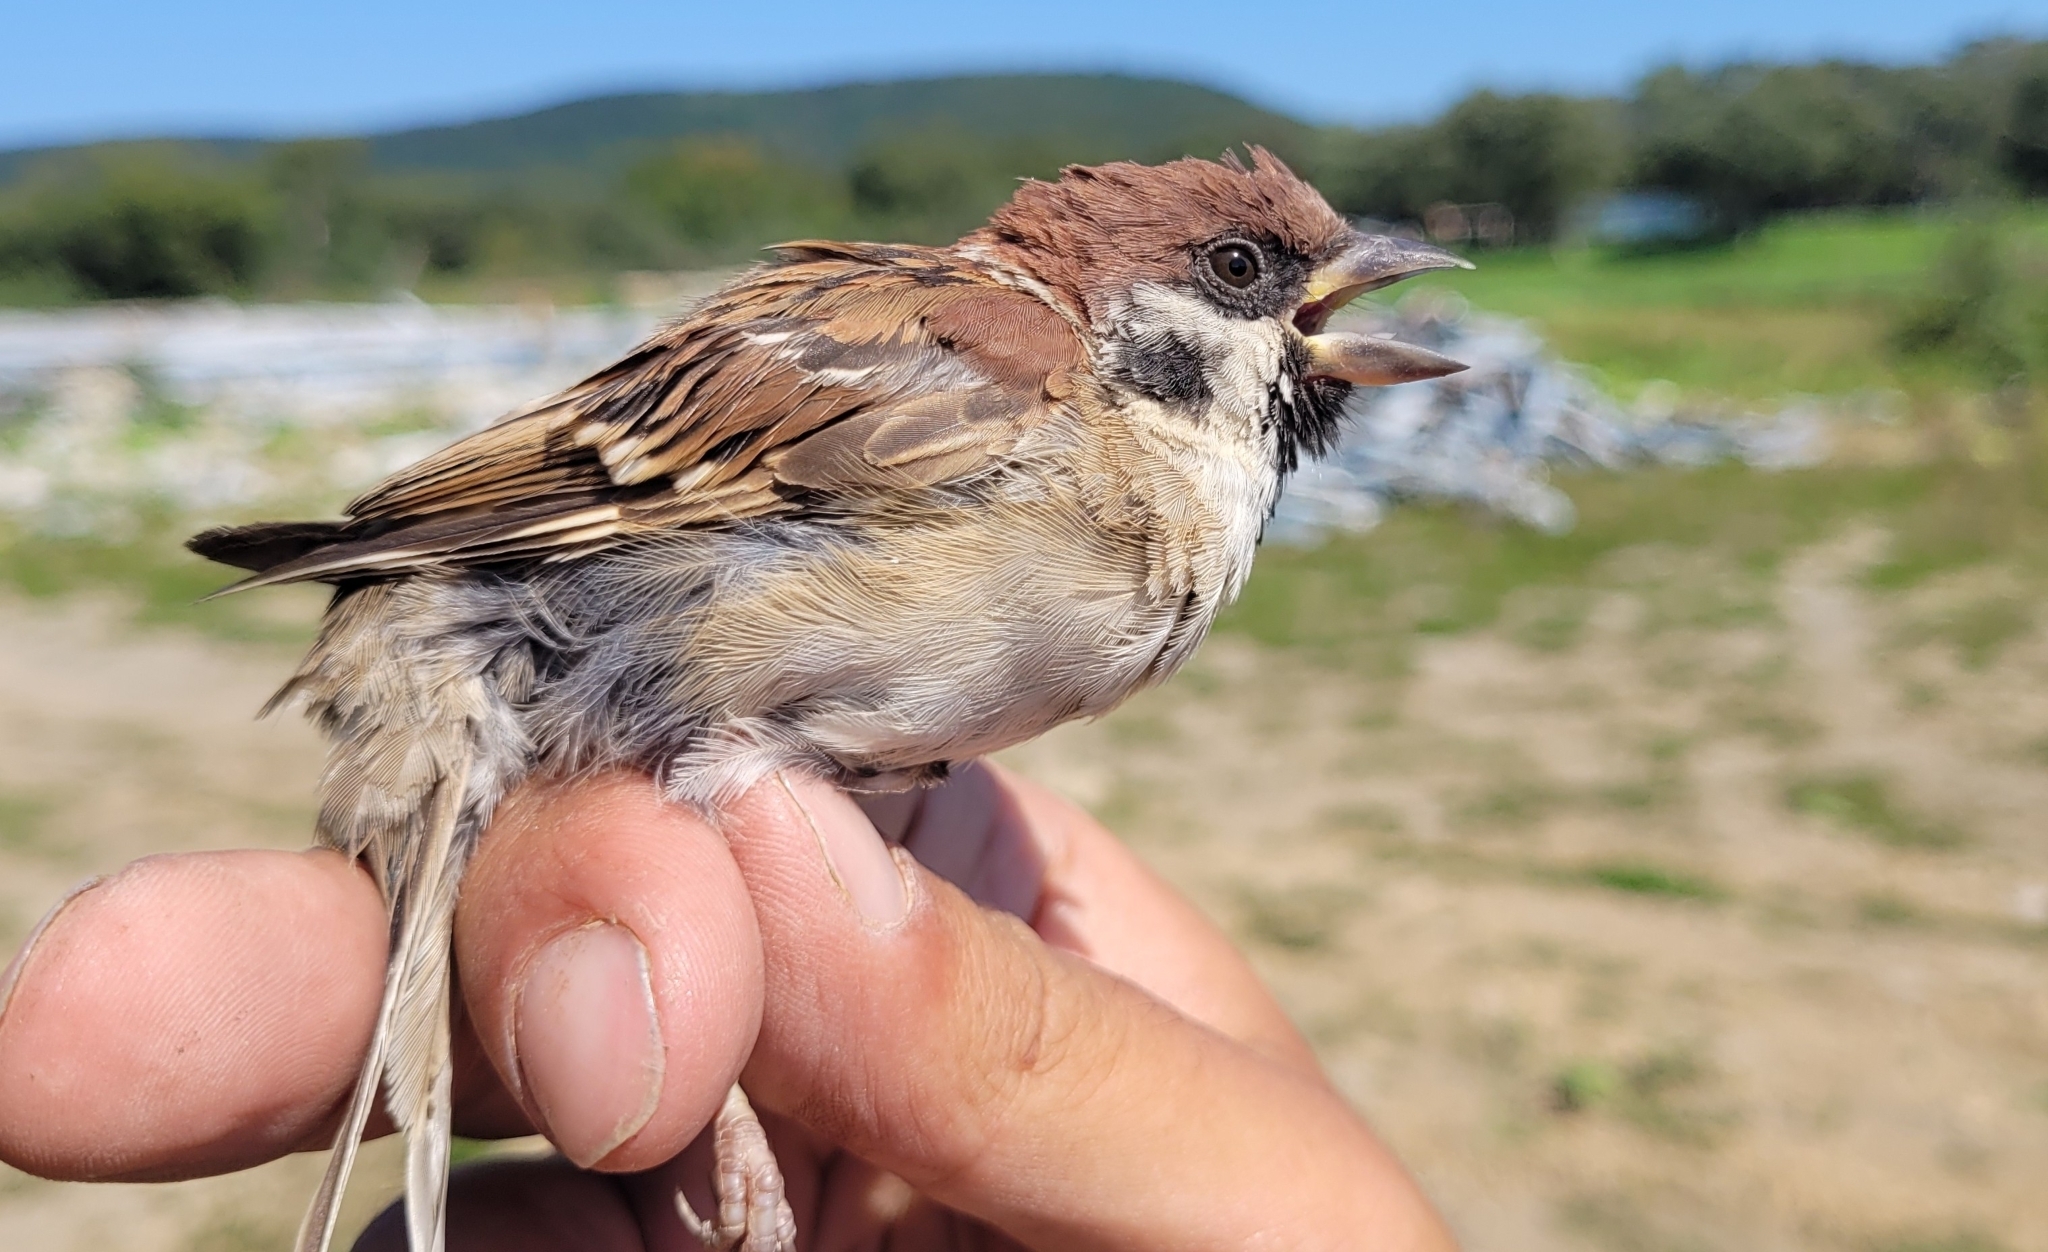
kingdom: Animalia
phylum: Chordata
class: Aves
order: Passeriformes
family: Passeridae
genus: Passer
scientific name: Passer montanus
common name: Eurasian tree sparrow
